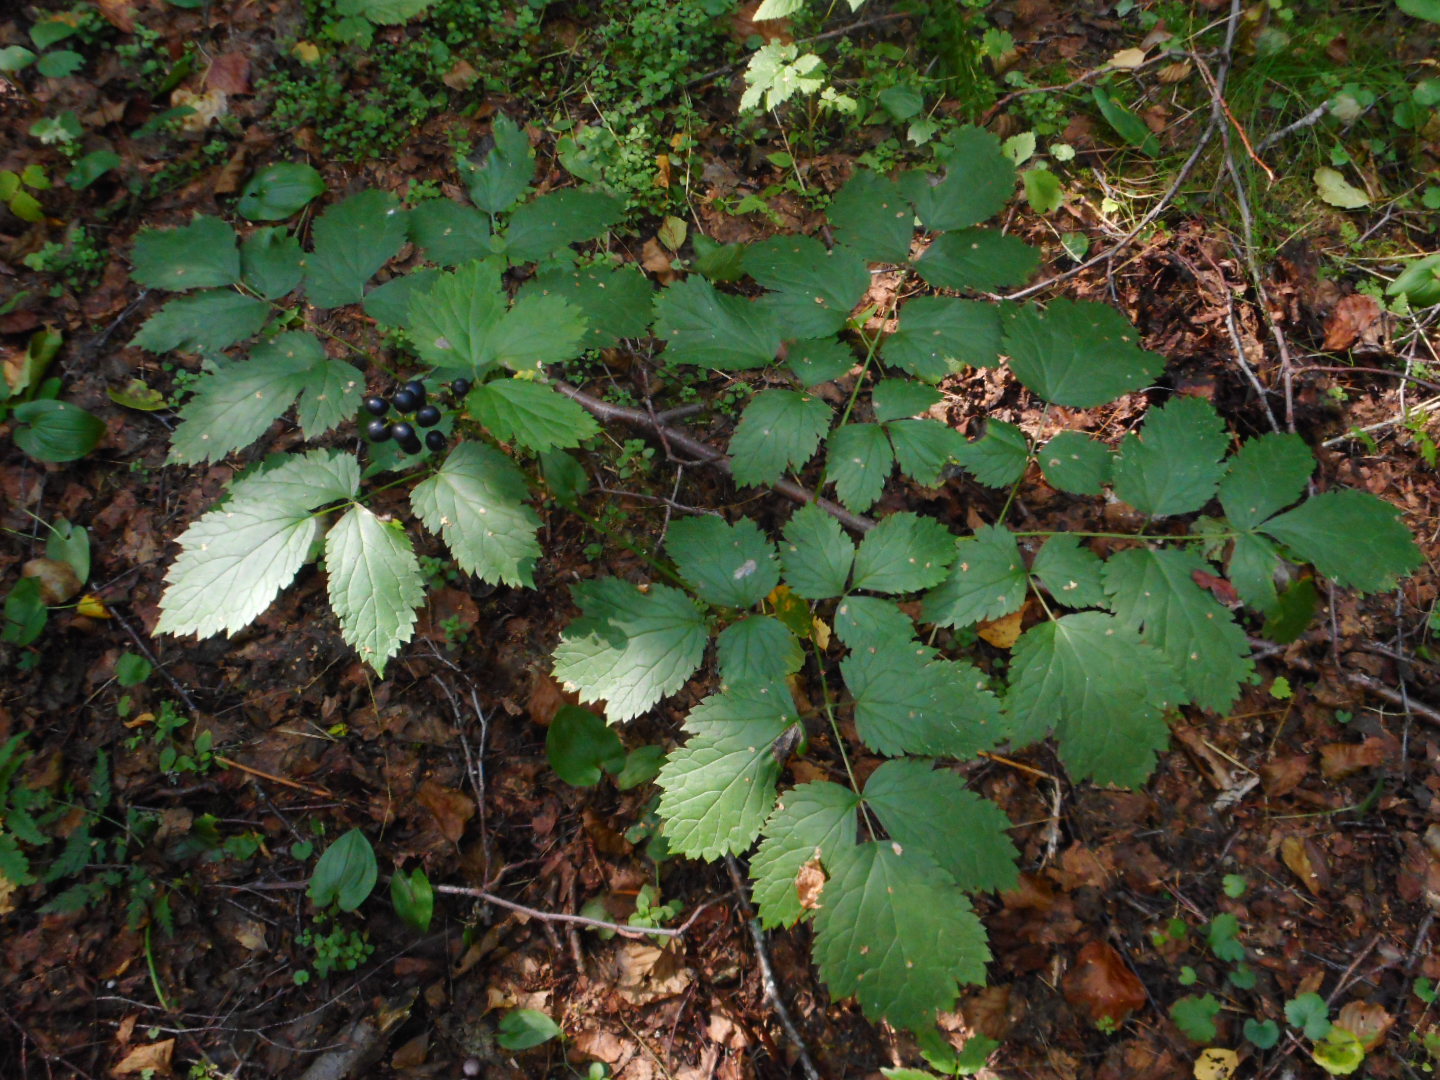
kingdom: Plantae
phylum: Tracheophyta
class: Magnoliopsida
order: Ranunculales
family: Ranunculaceae
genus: Actaea
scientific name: Actaea spicata
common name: Baneberry
